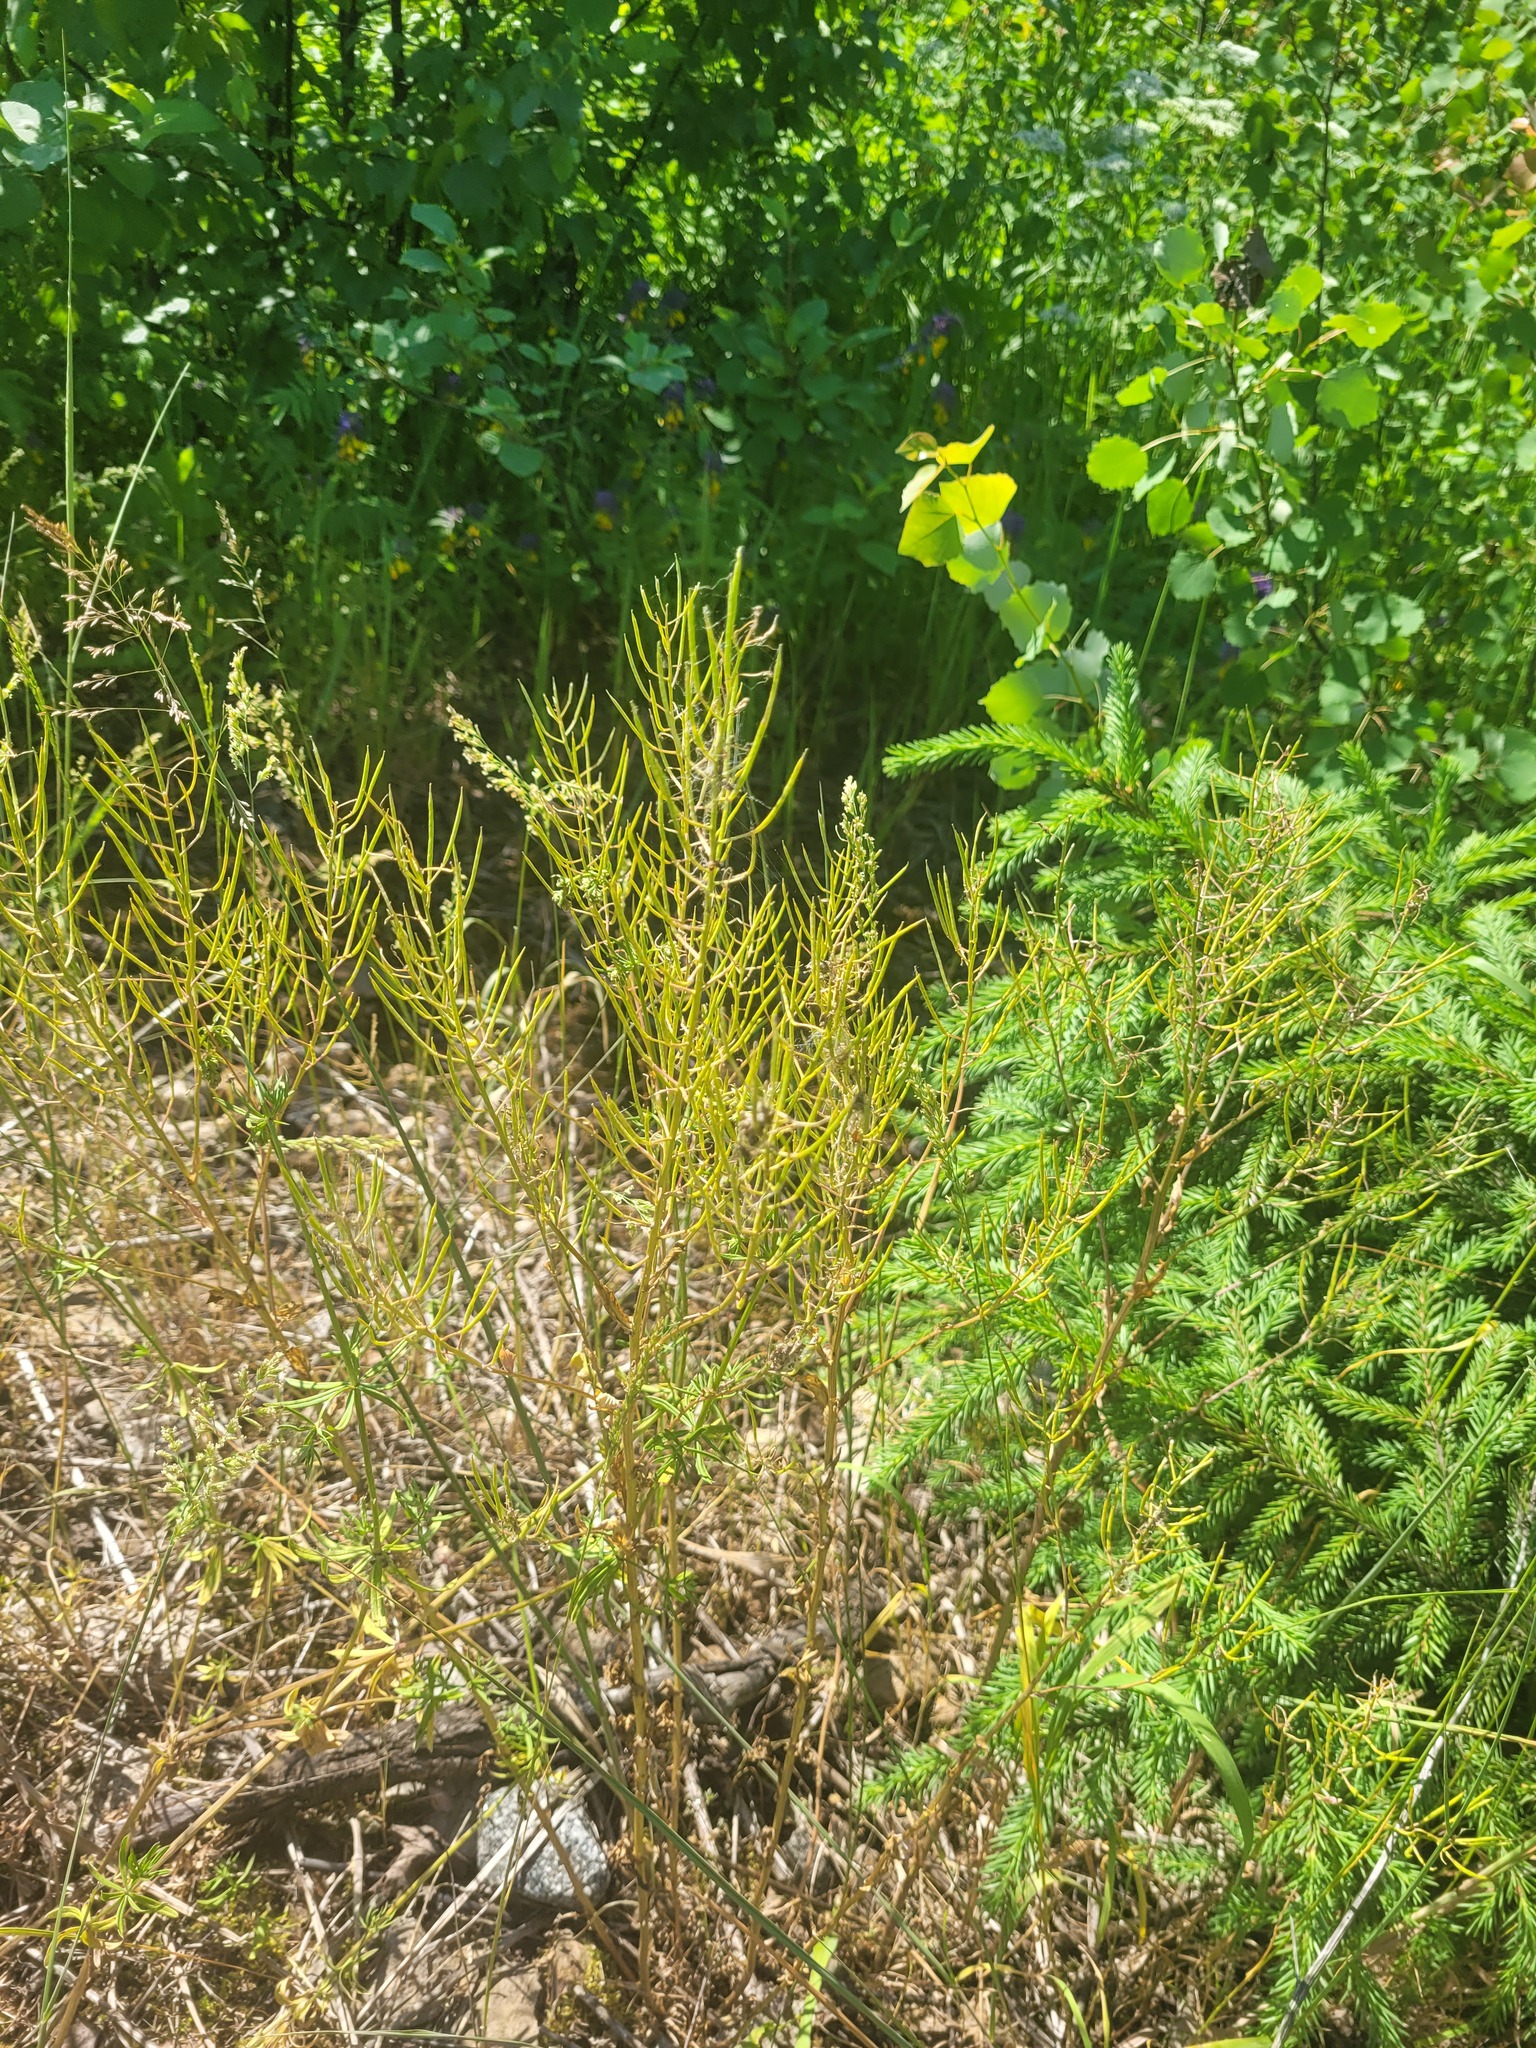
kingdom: Plantae
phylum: Tracheophyta
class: Magnoliopsida
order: Brassicales
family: Brassicaceae
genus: Barbarea
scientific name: Barbarea vulgaris
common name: Cressy-greens
